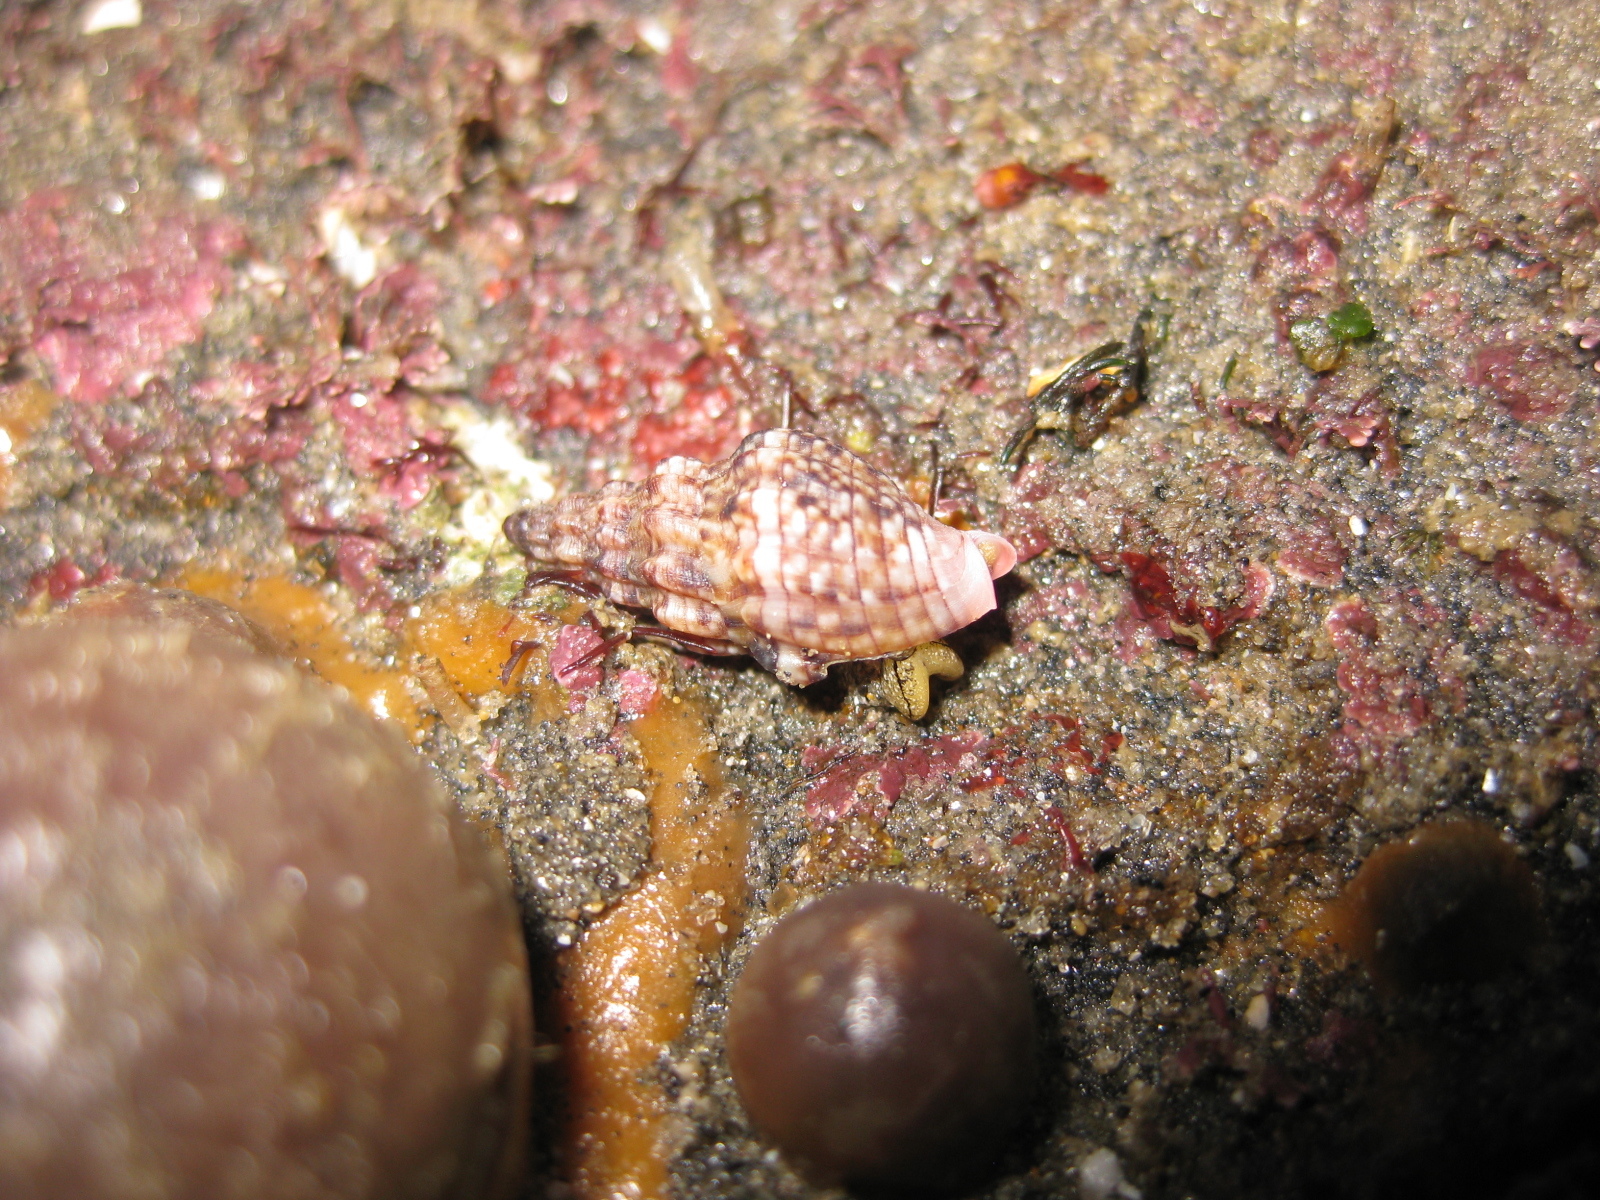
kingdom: Animalia
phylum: Mollusca
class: Gastropoda
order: Neogastropoda
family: Cominellidae
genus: Cominella
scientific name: Cominella quoyana
